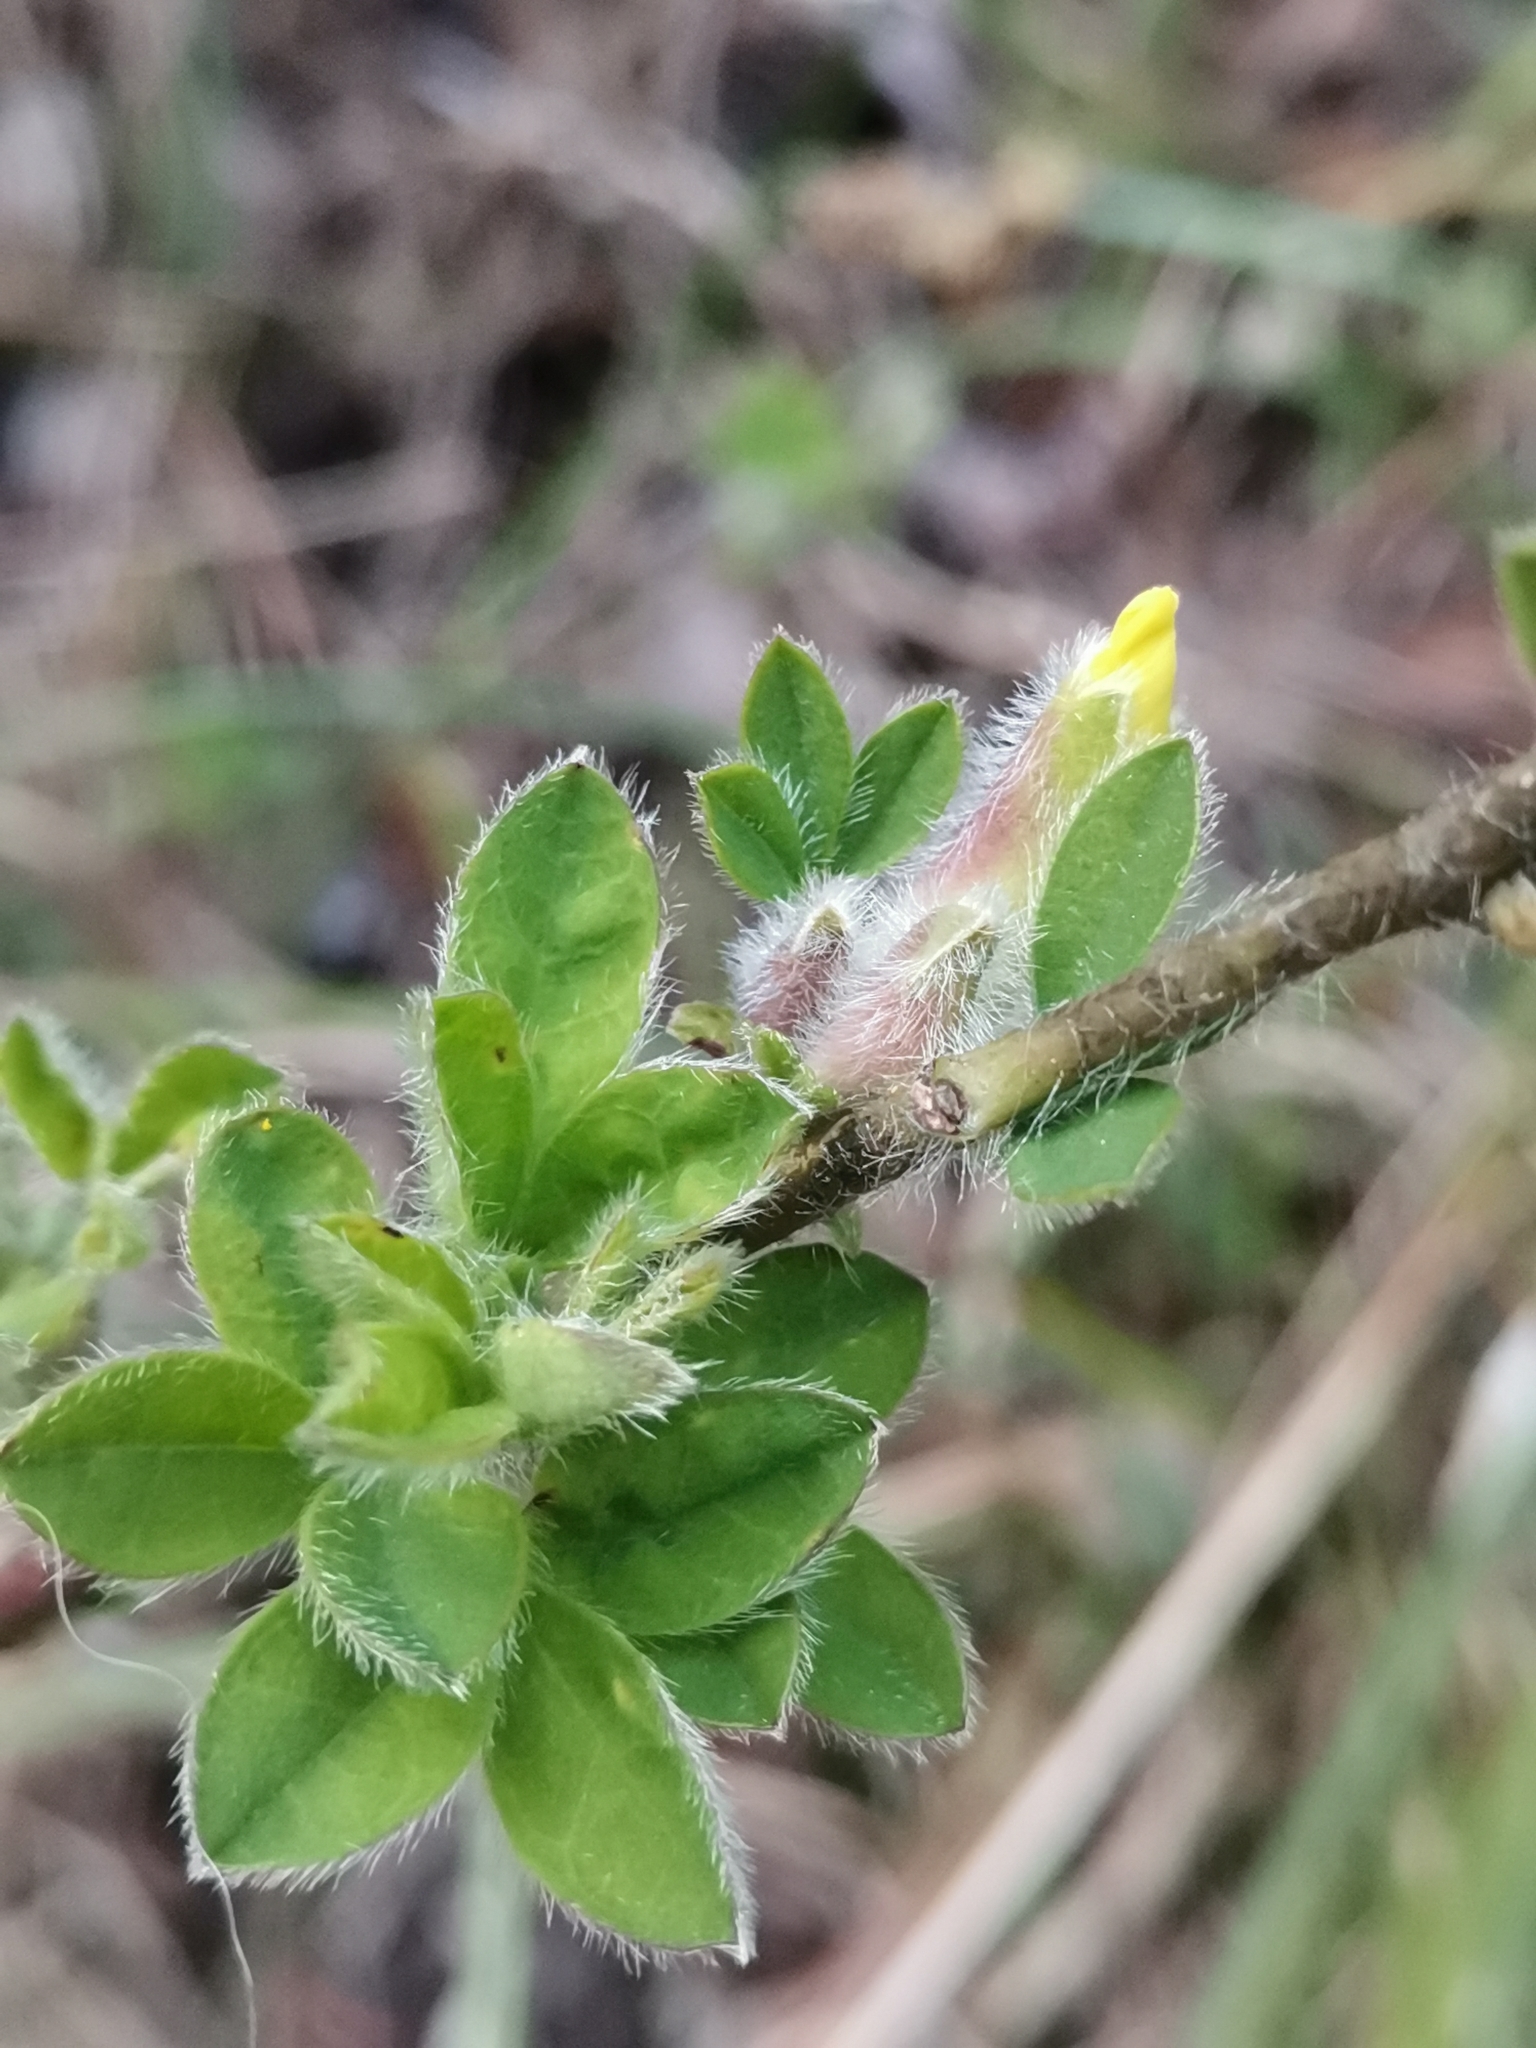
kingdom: Plantae
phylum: Tracheophyta
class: Magnoliopsida
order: Fabales
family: Fabaceae
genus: Chamaecytisus
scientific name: Chamaecytisus supinus
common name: Clustered broom
